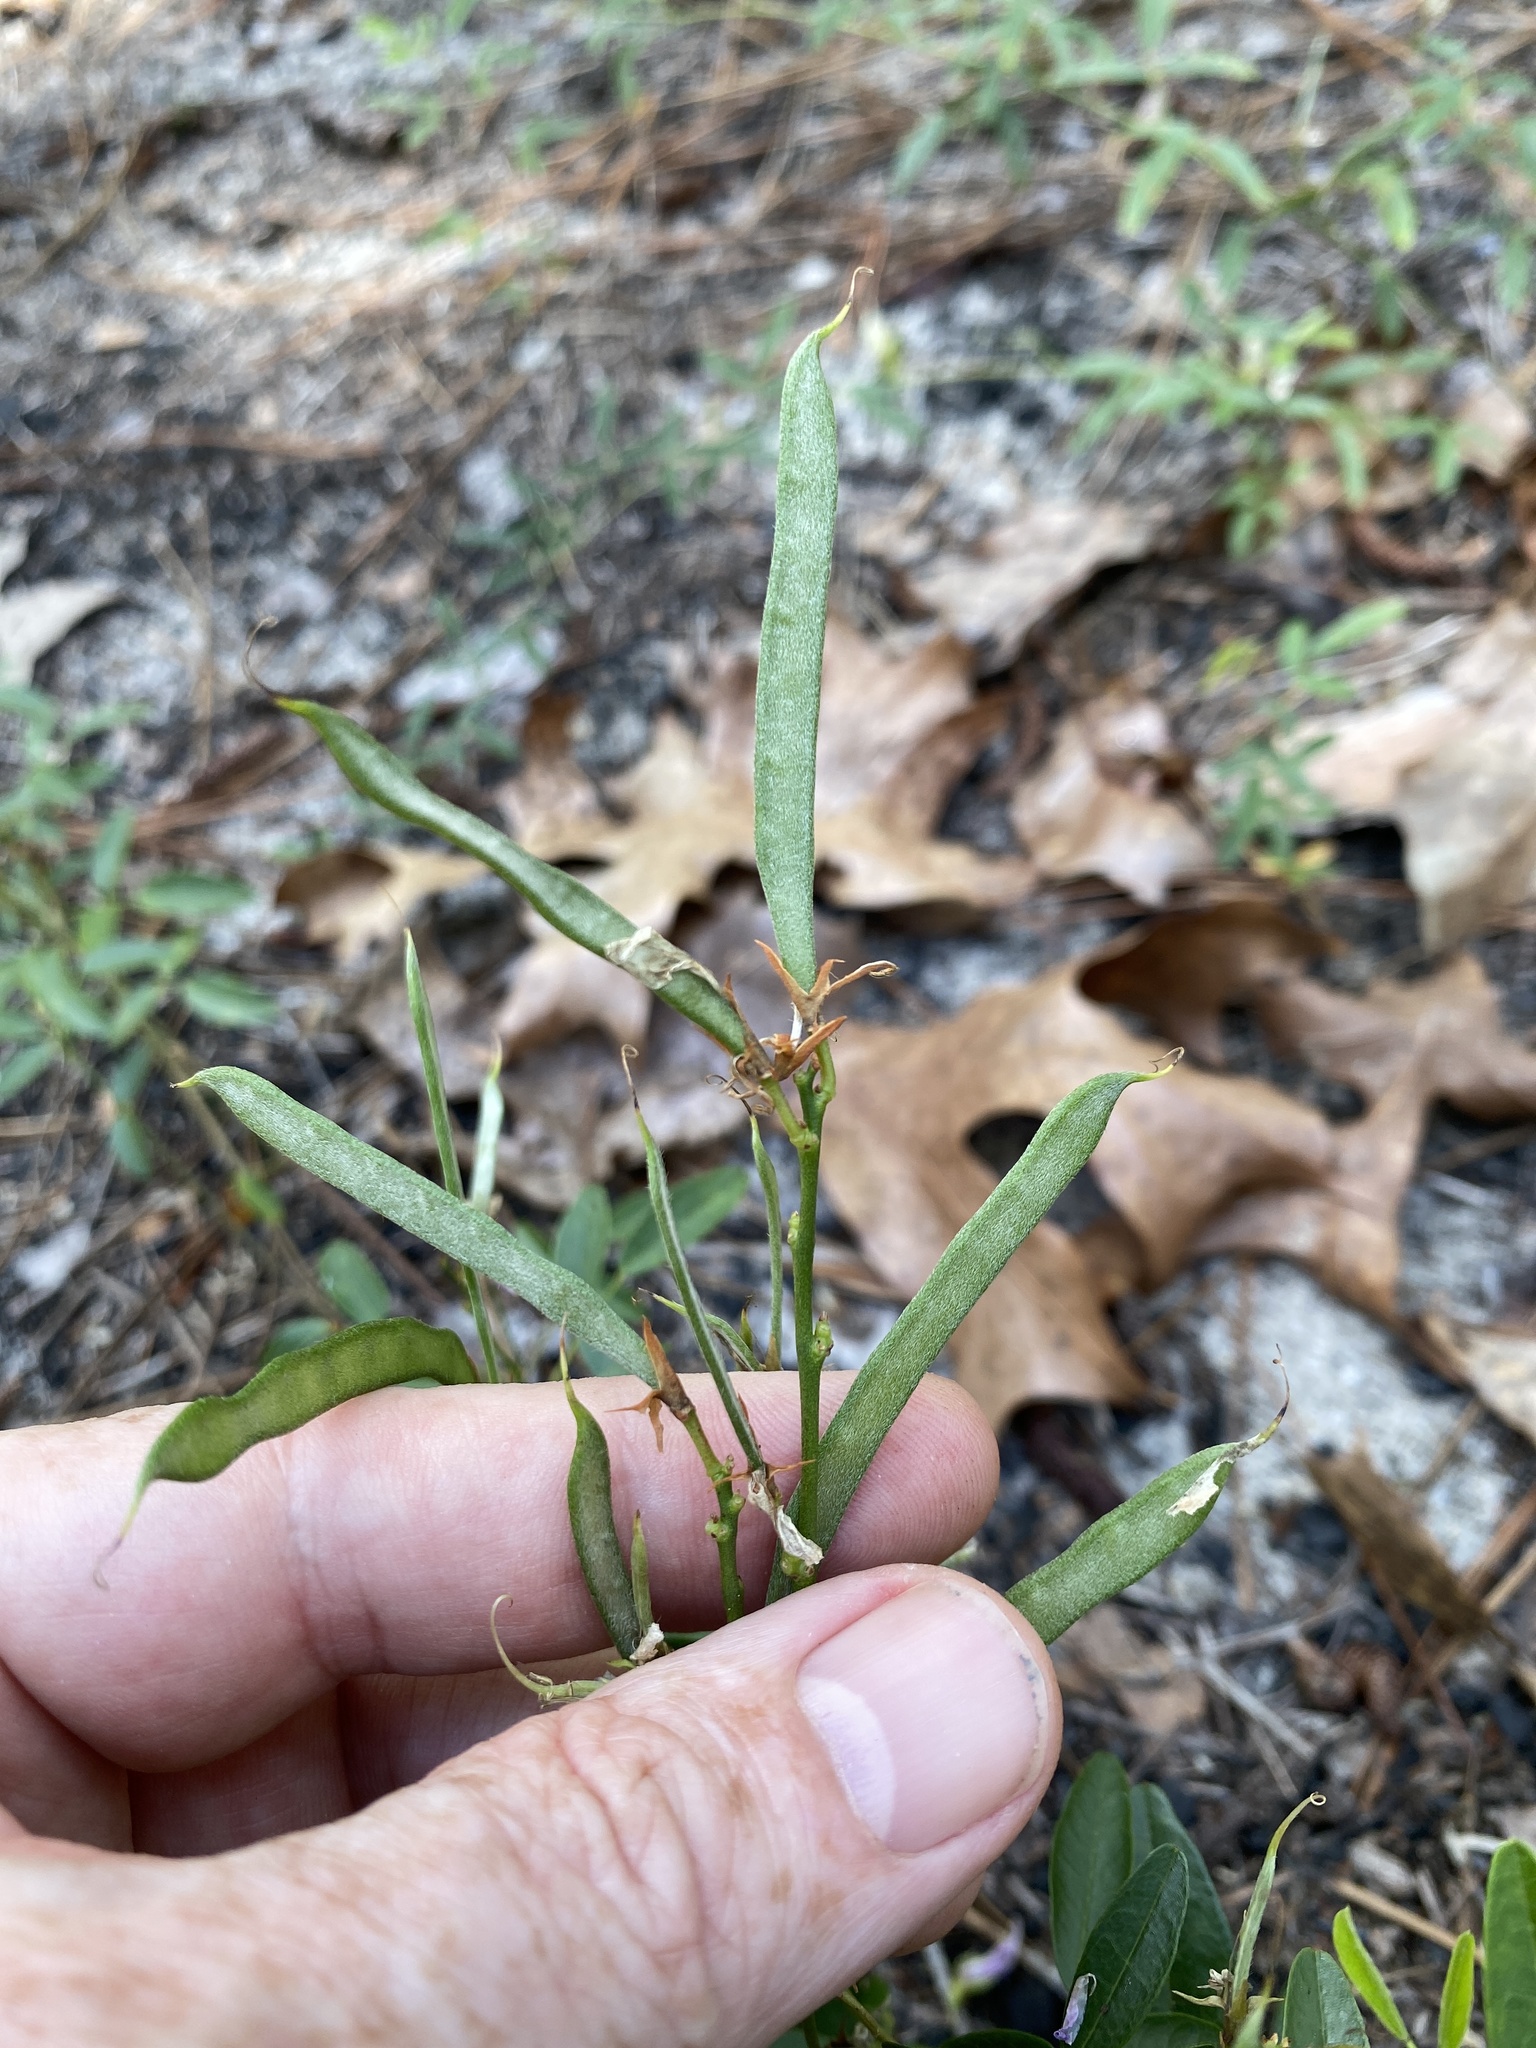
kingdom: Plantae
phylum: Tracheophyta
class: Magnoliopsida
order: Fabales
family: Fabaceae
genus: Galactia
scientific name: Galactia volubilis
